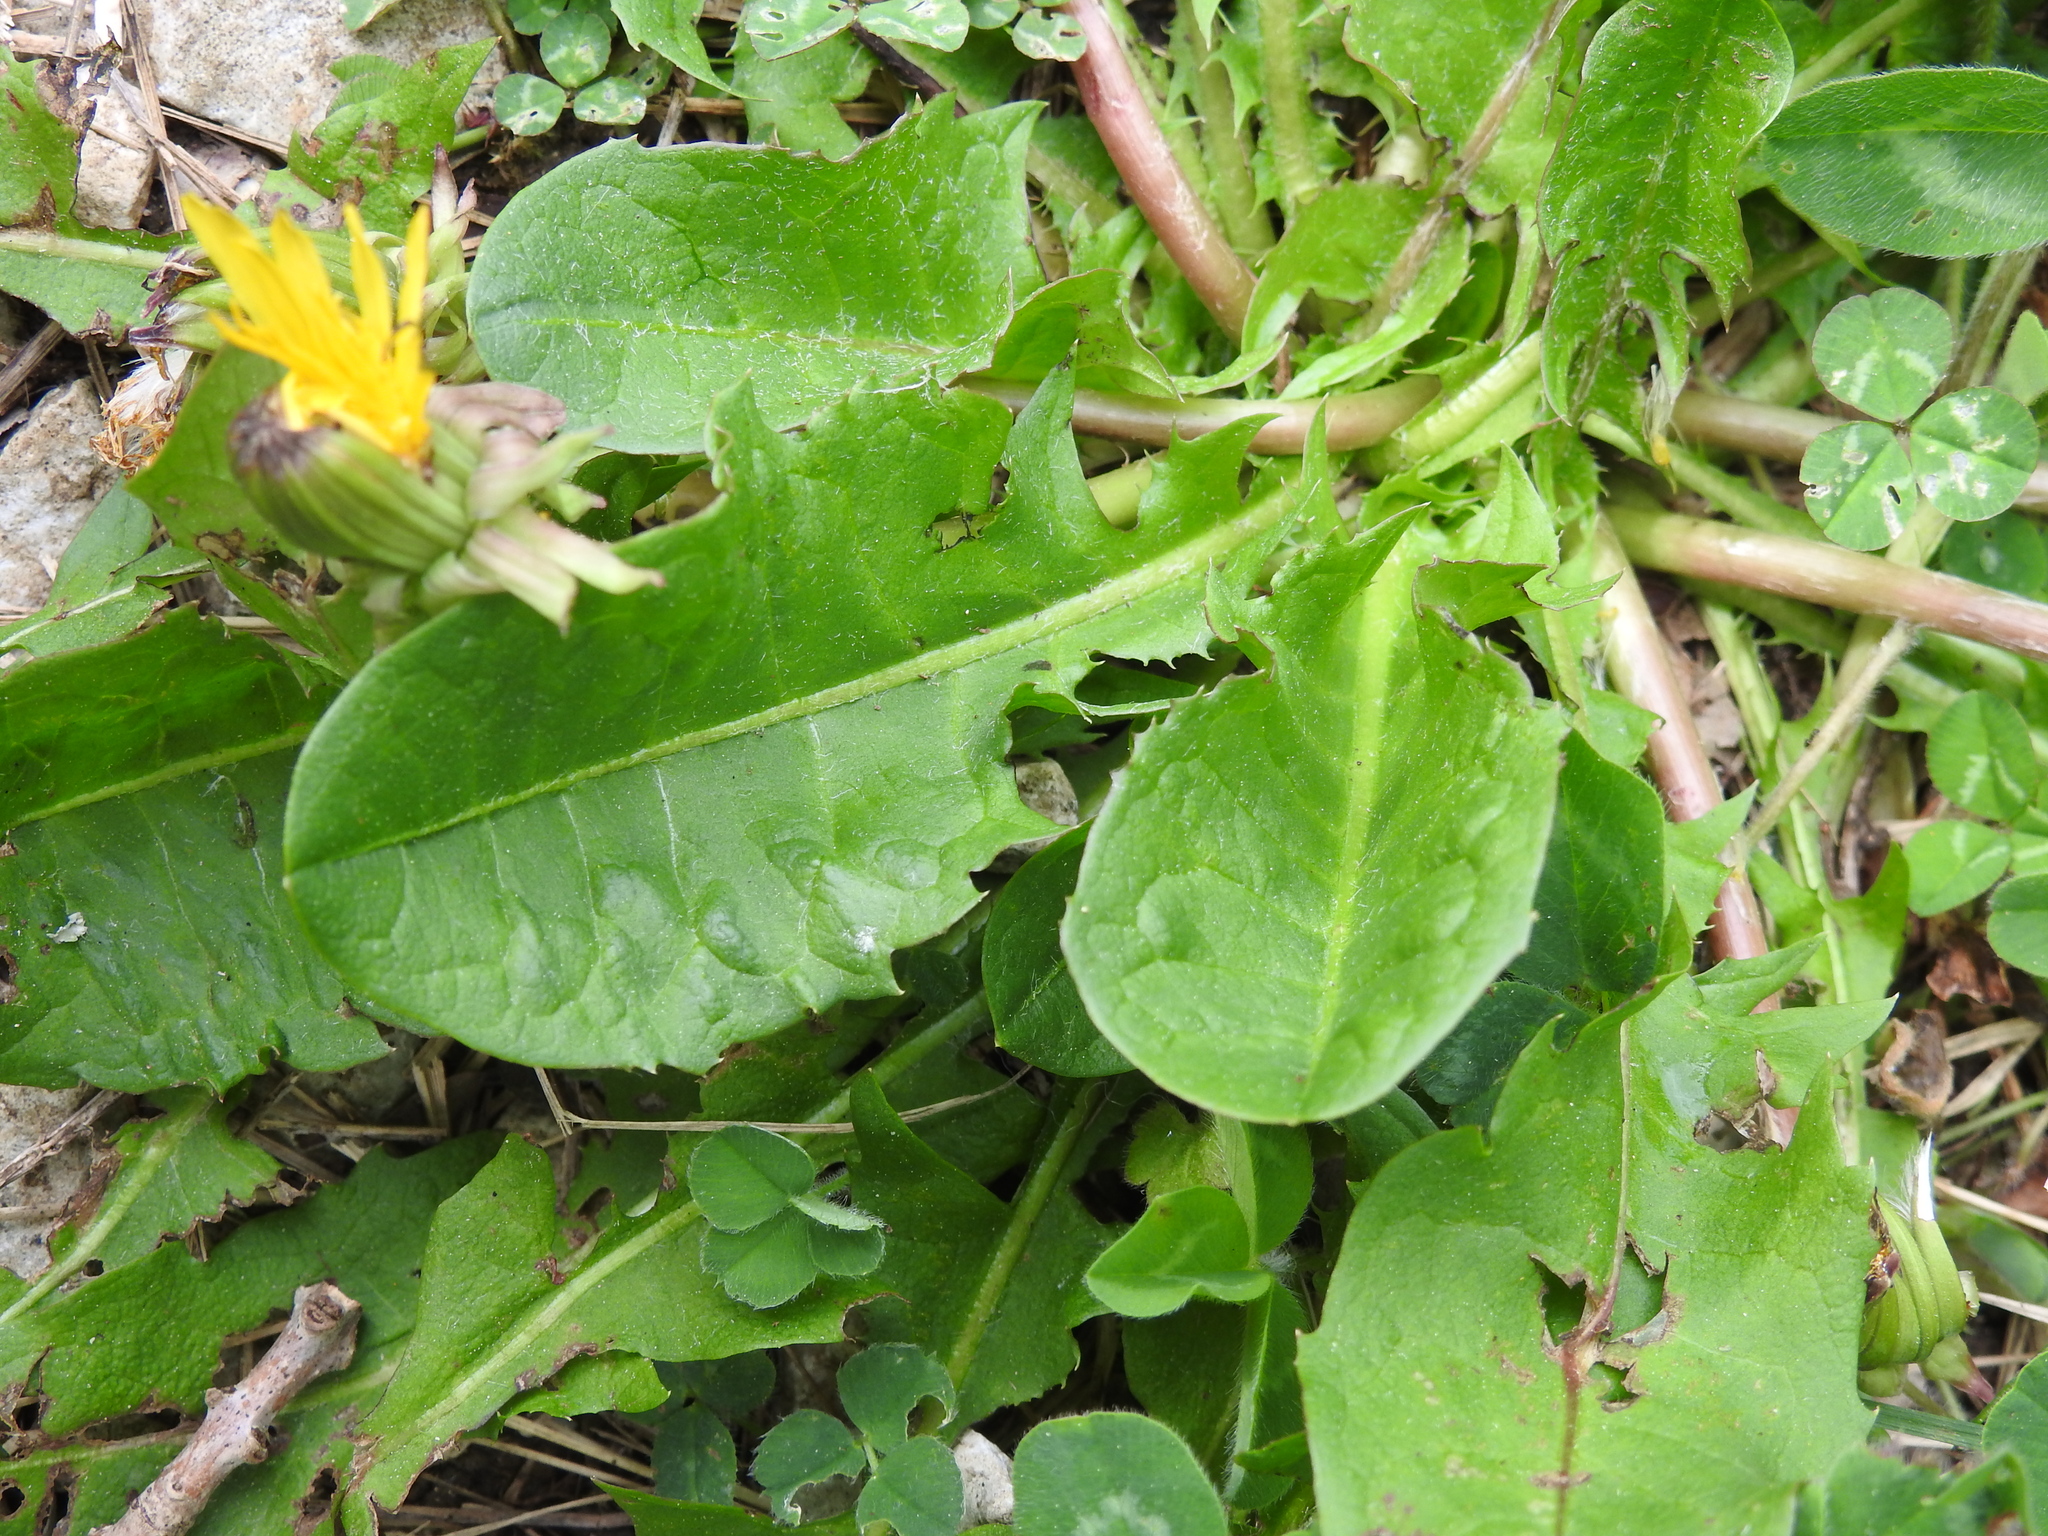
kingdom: Plantae
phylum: Tracheophyta
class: Magnoliopsida
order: Asterales
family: Asteraceae
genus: Taraxacum
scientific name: Taraxacum officinale
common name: Common dandelion
